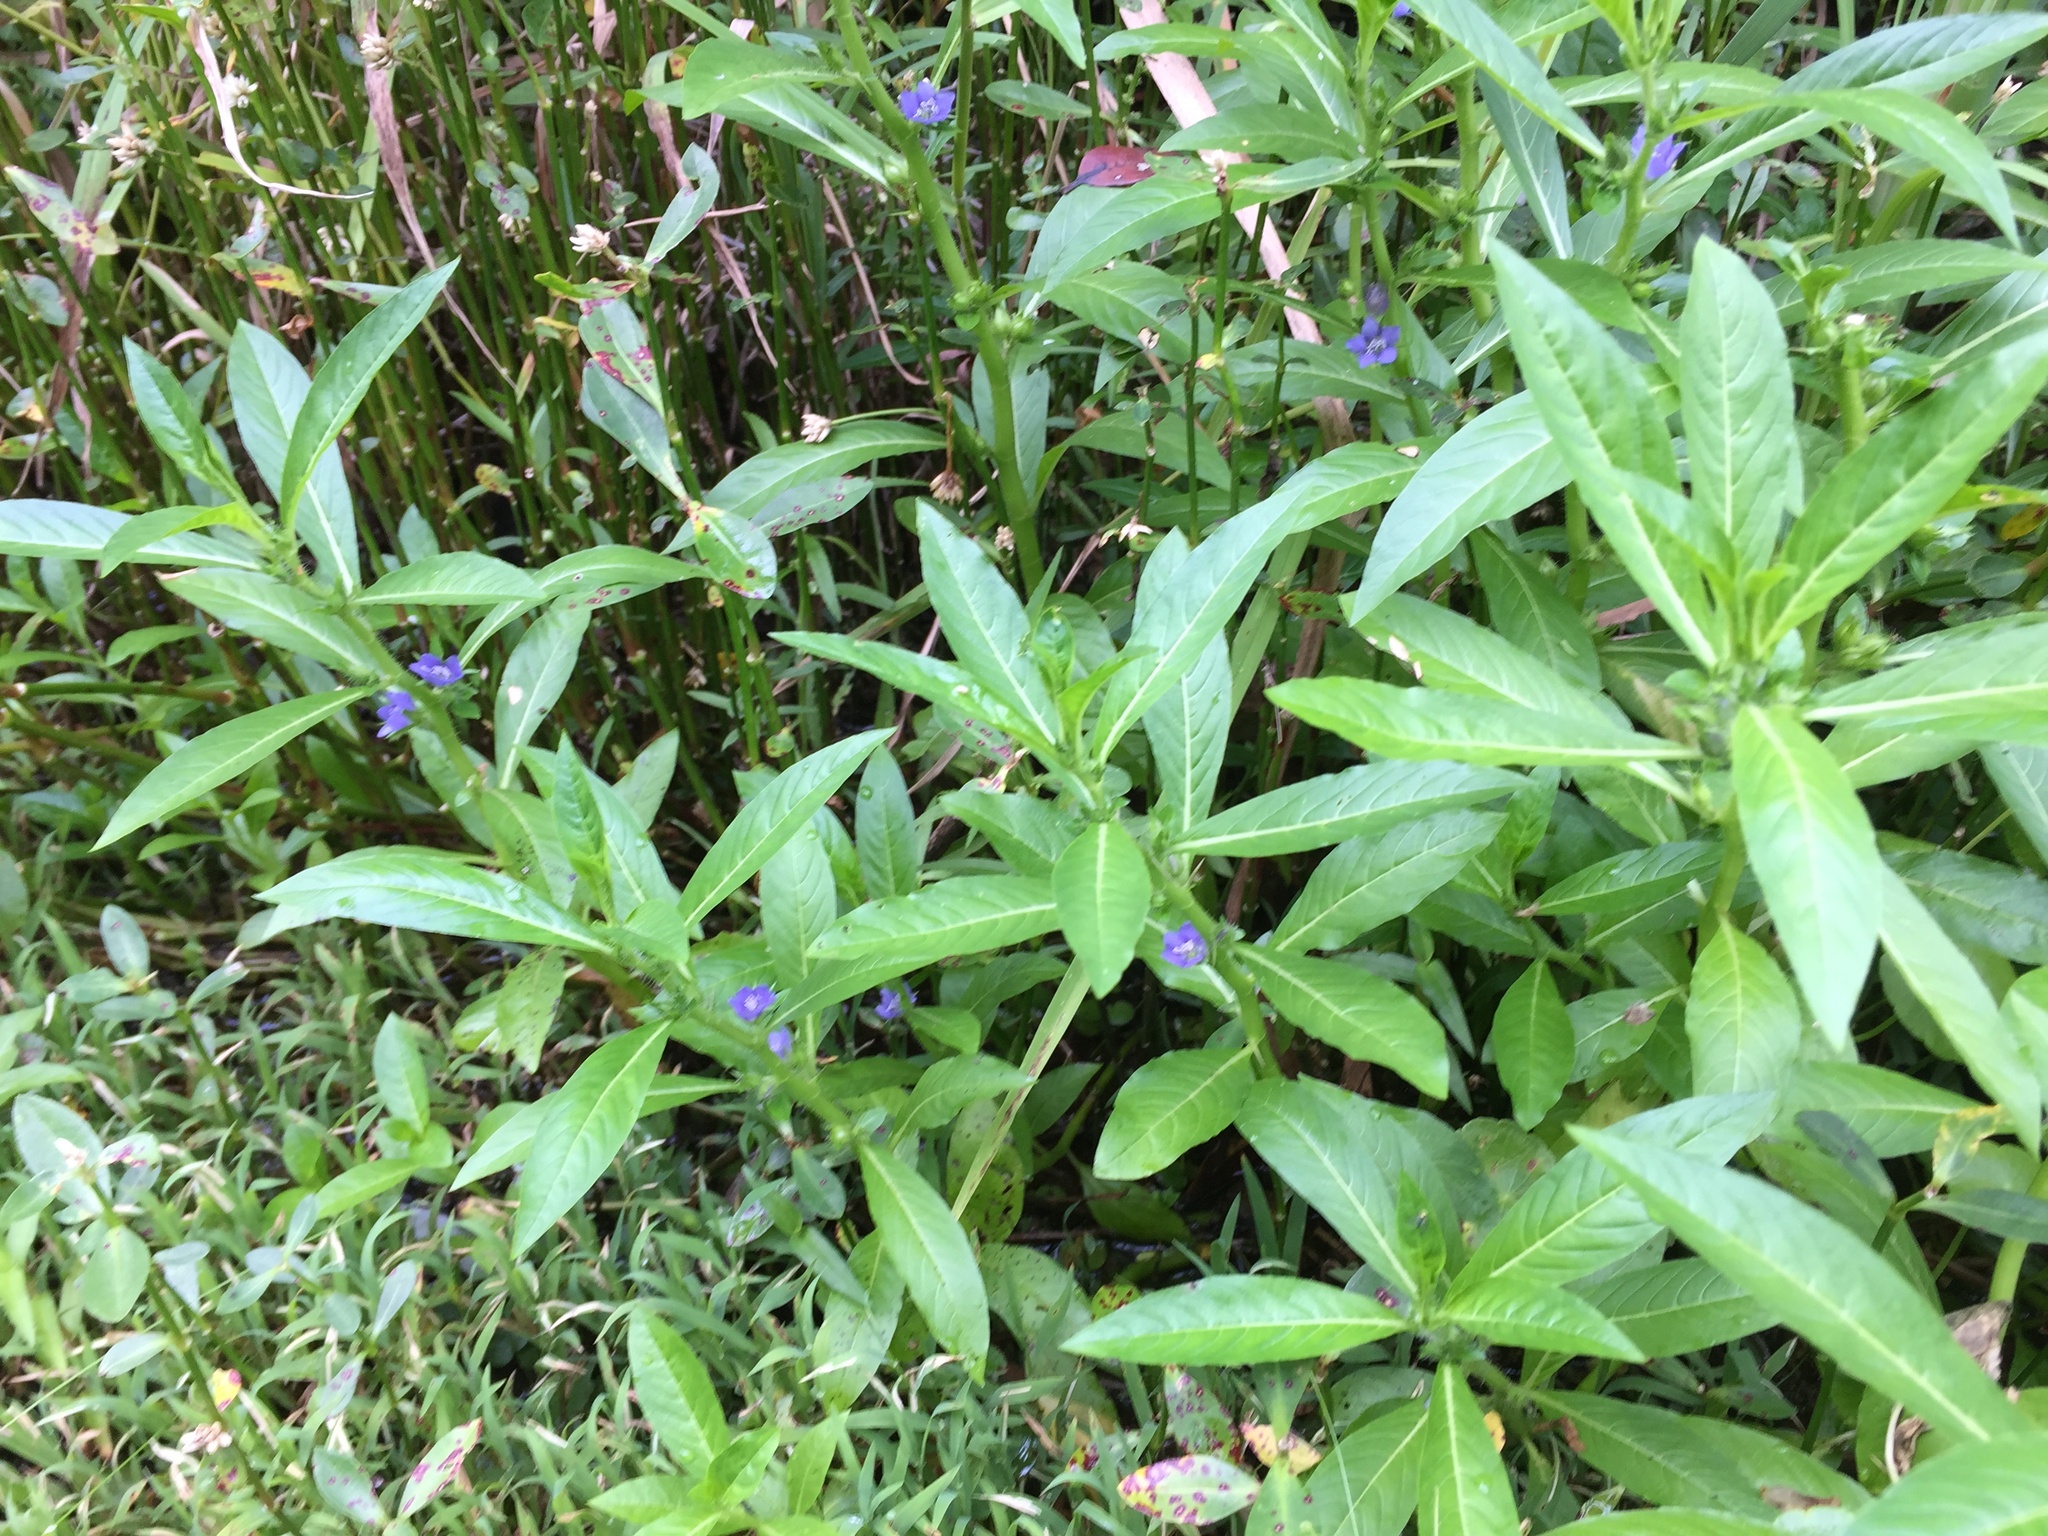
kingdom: Plantae
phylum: Tracheophyta
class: Magnoliopsida
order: Solanales
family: Hydroleaceae
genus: Hydrolea
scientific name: Hydrolea quadrivalvis
